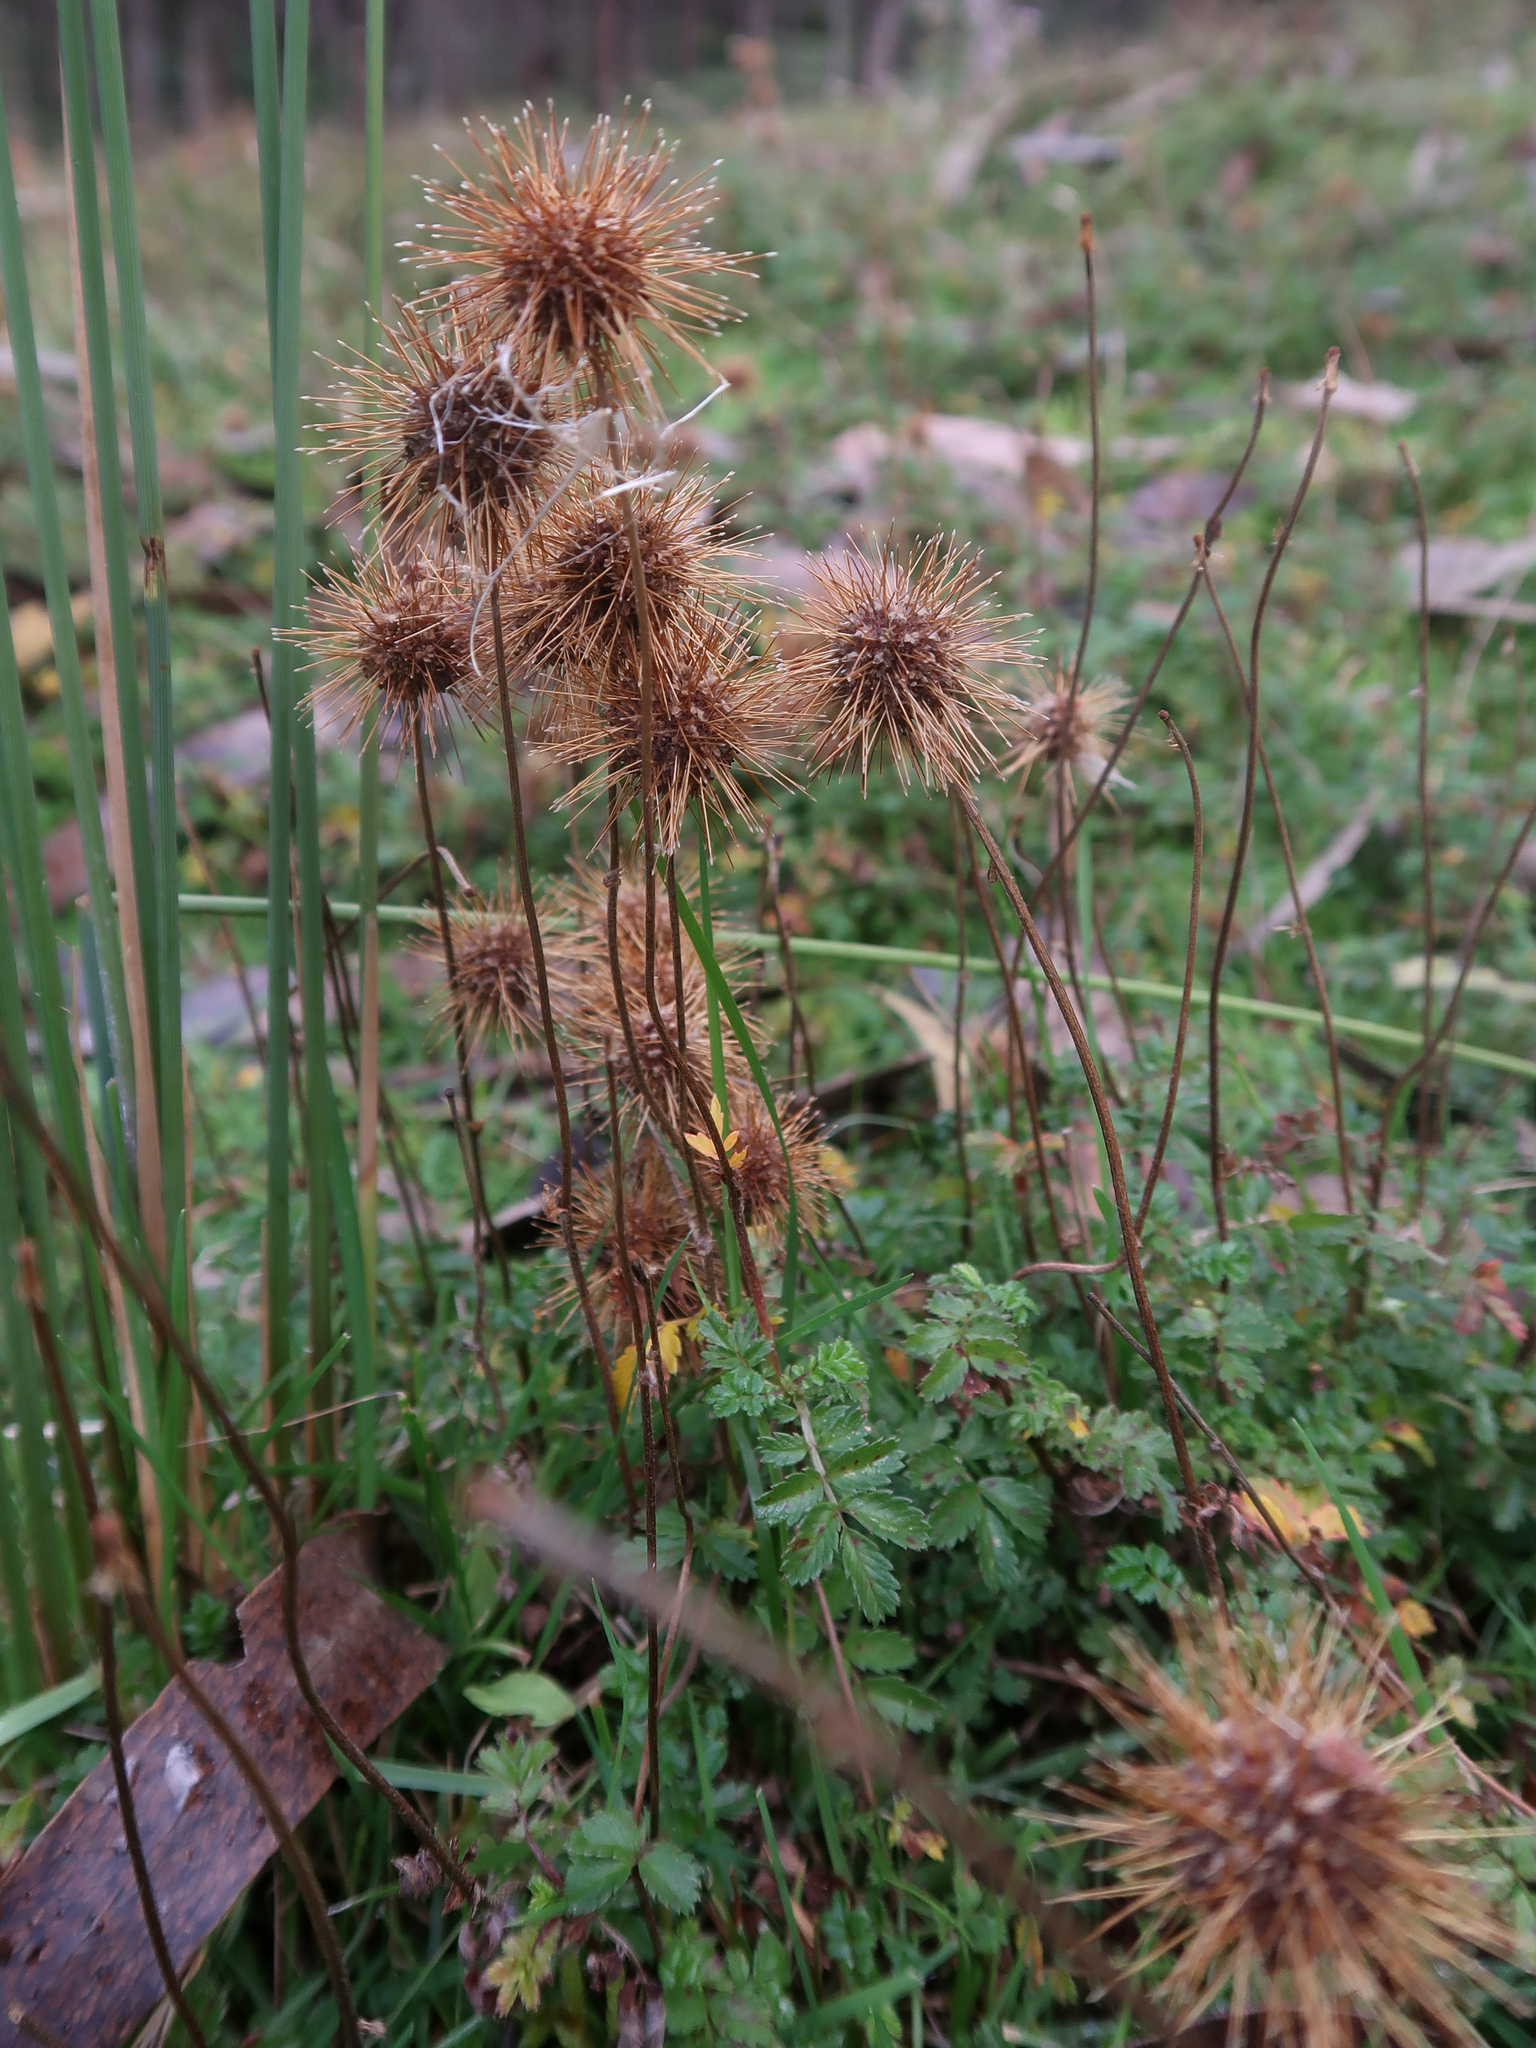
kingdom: Plantae
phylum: Tracheophyta
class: Magnoliopsida
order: Rosales
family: Rosaceae
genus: Acaena
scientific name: Acaena novae-zelandiae
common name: Pirri-pirri-bur
